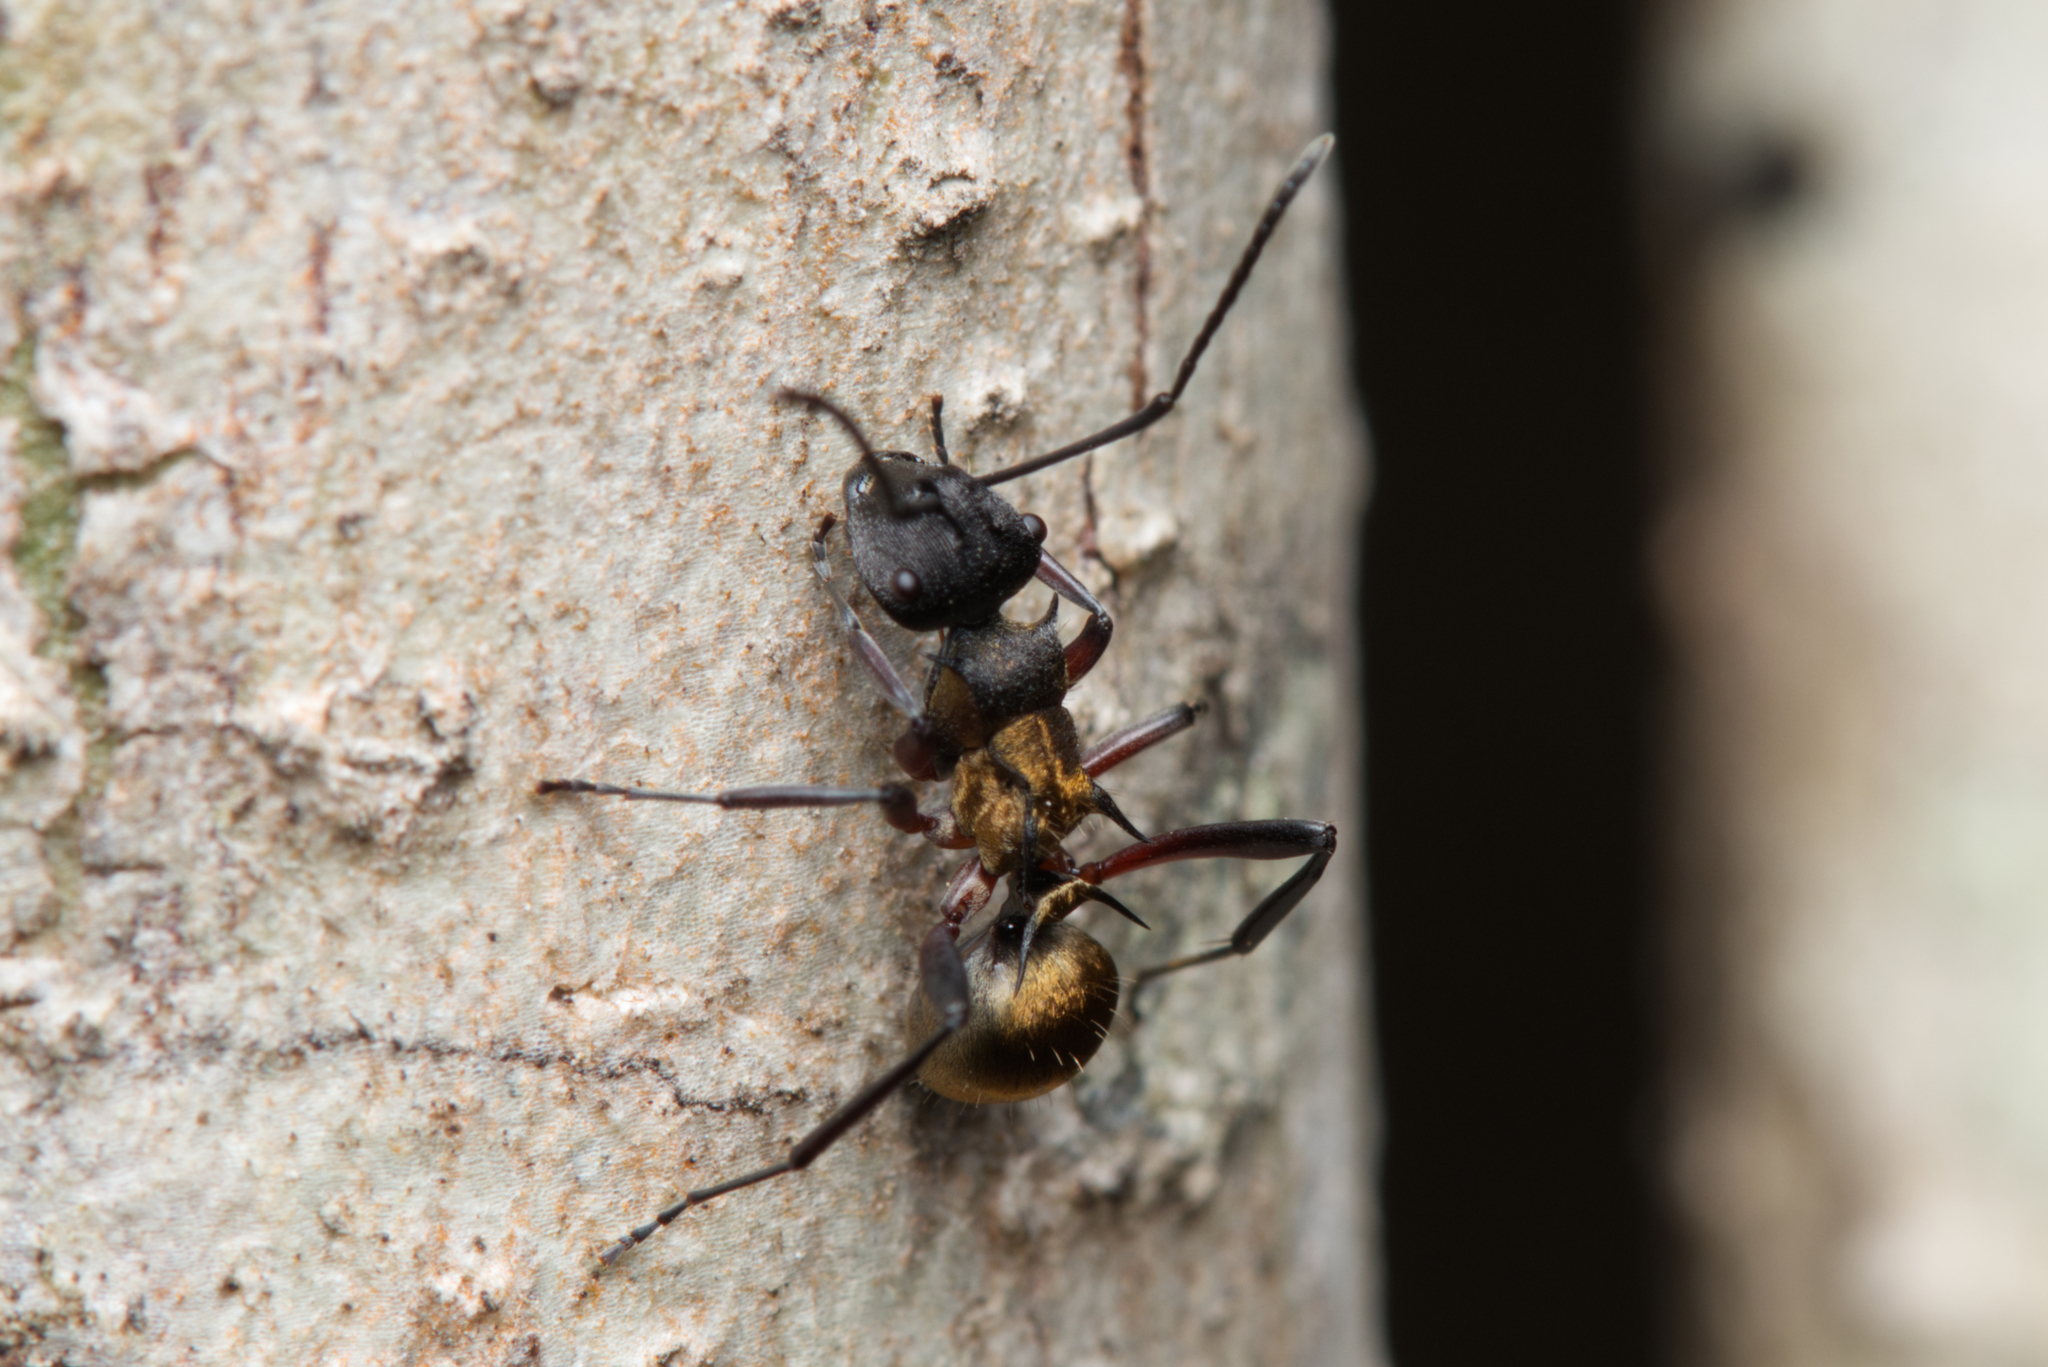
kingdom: Animalia
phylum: Arthropoda
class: Insecta
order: Hymenoptera
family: Formicidae
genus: Polyrhachis
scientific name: Polyrhachis rufifemur
